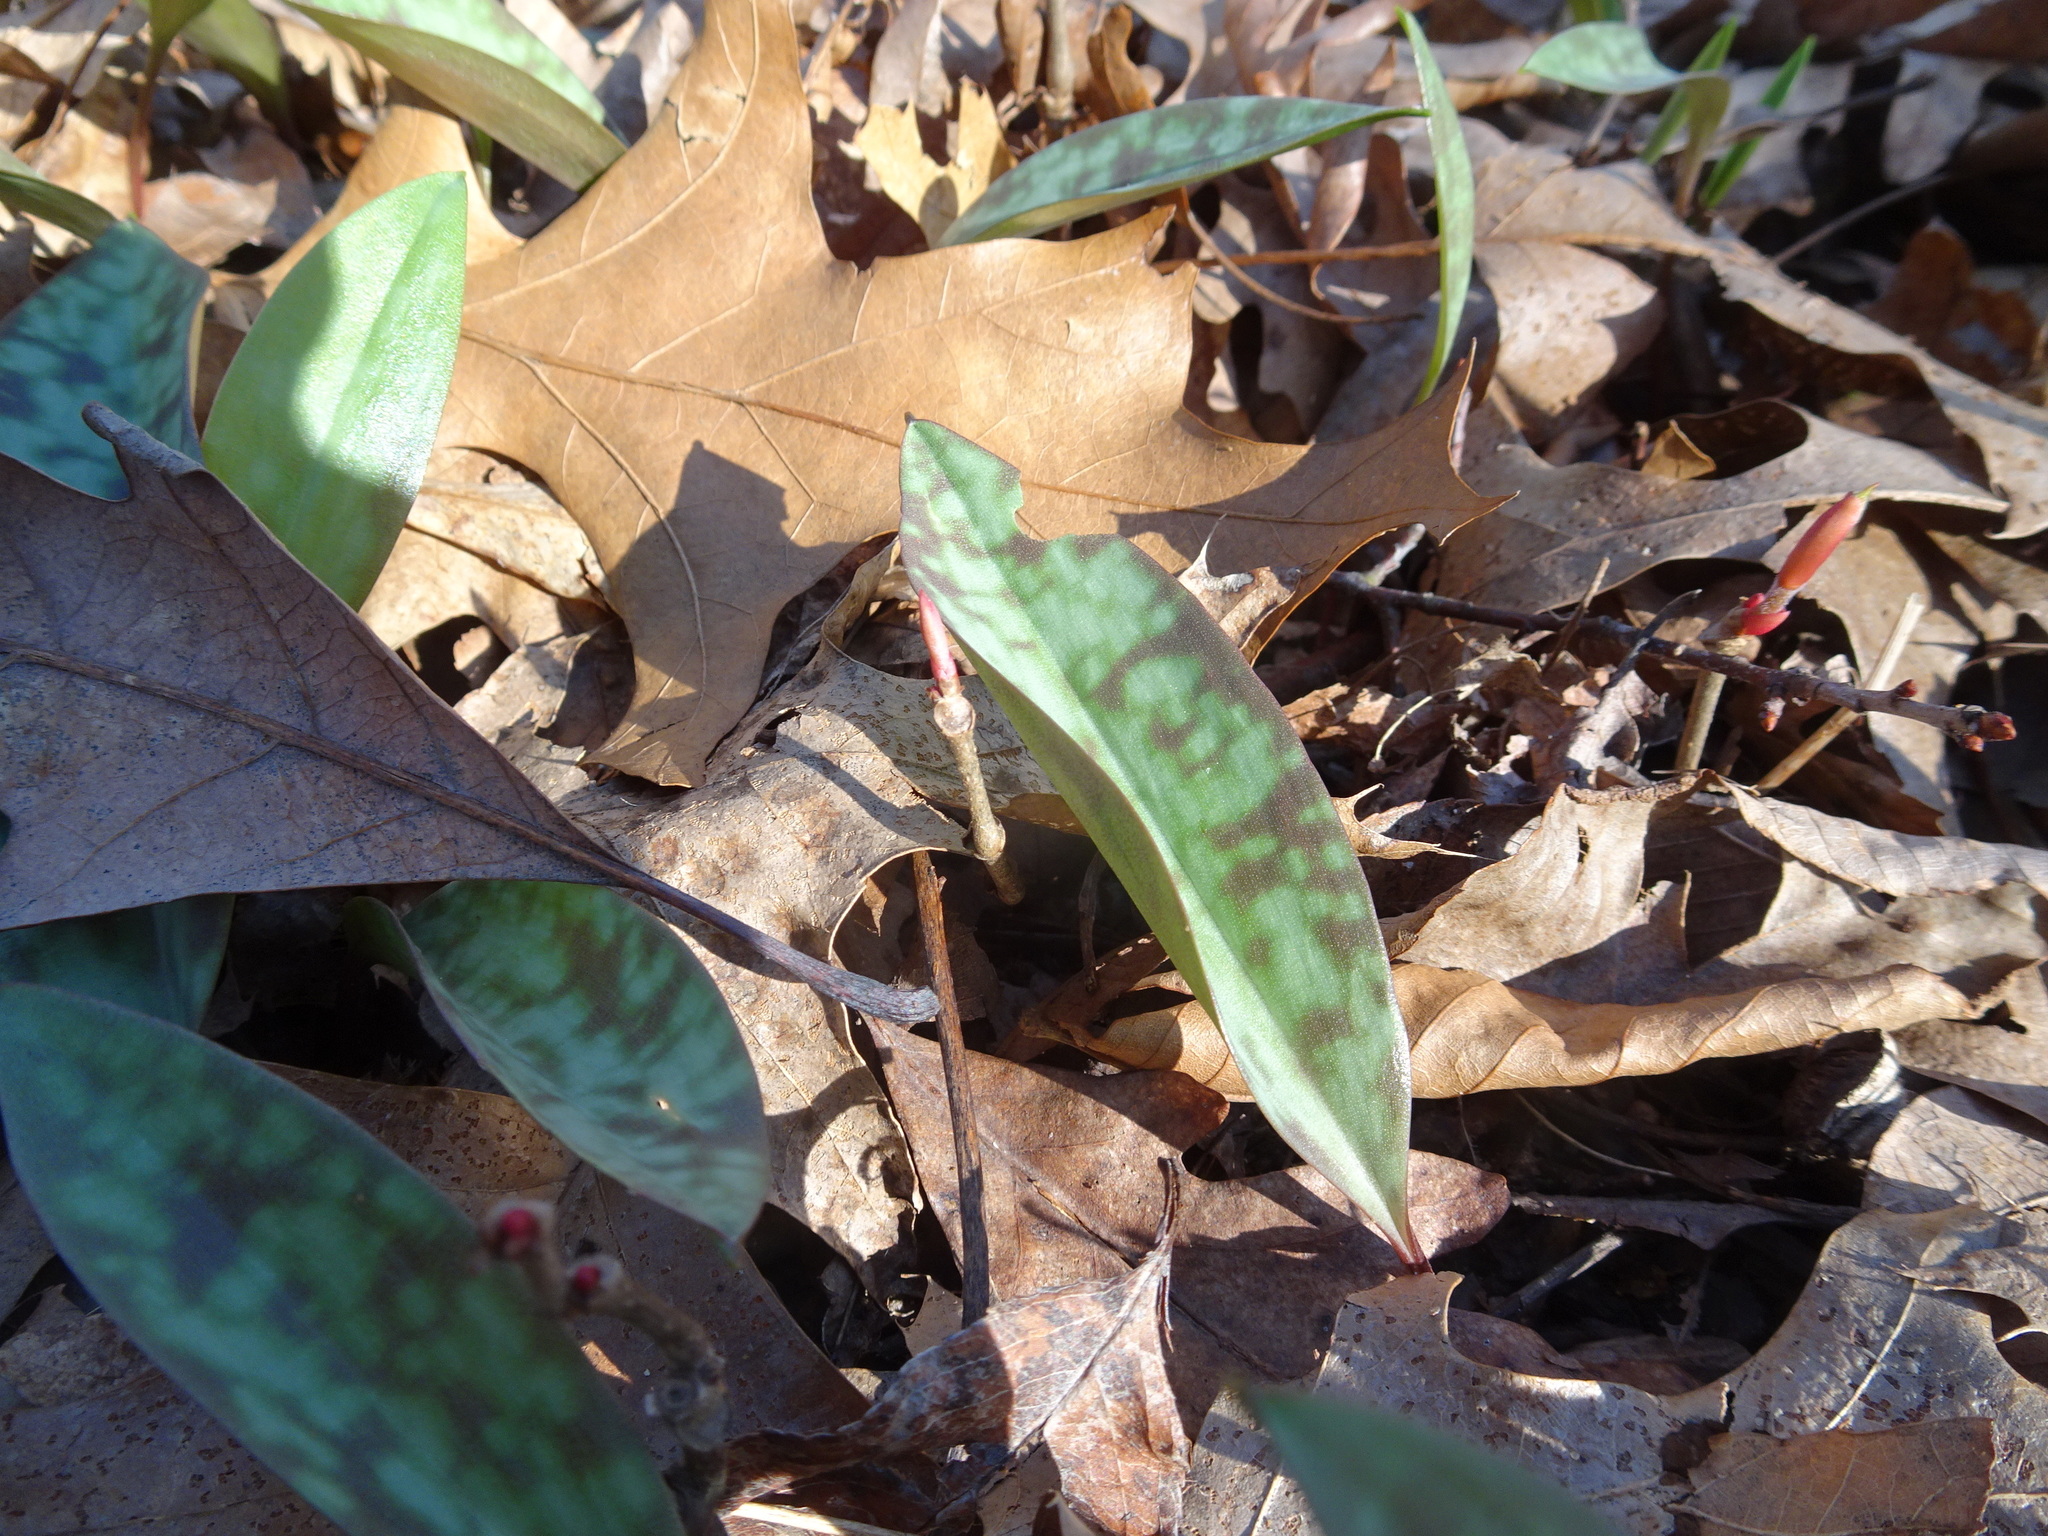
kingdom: Plantae
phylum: Tracheophyta
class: Liliopsida
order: Liliales
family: Liliaceae
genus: Erythronium
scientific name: Erythronium americanum
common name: Yellow adder's-tongue
